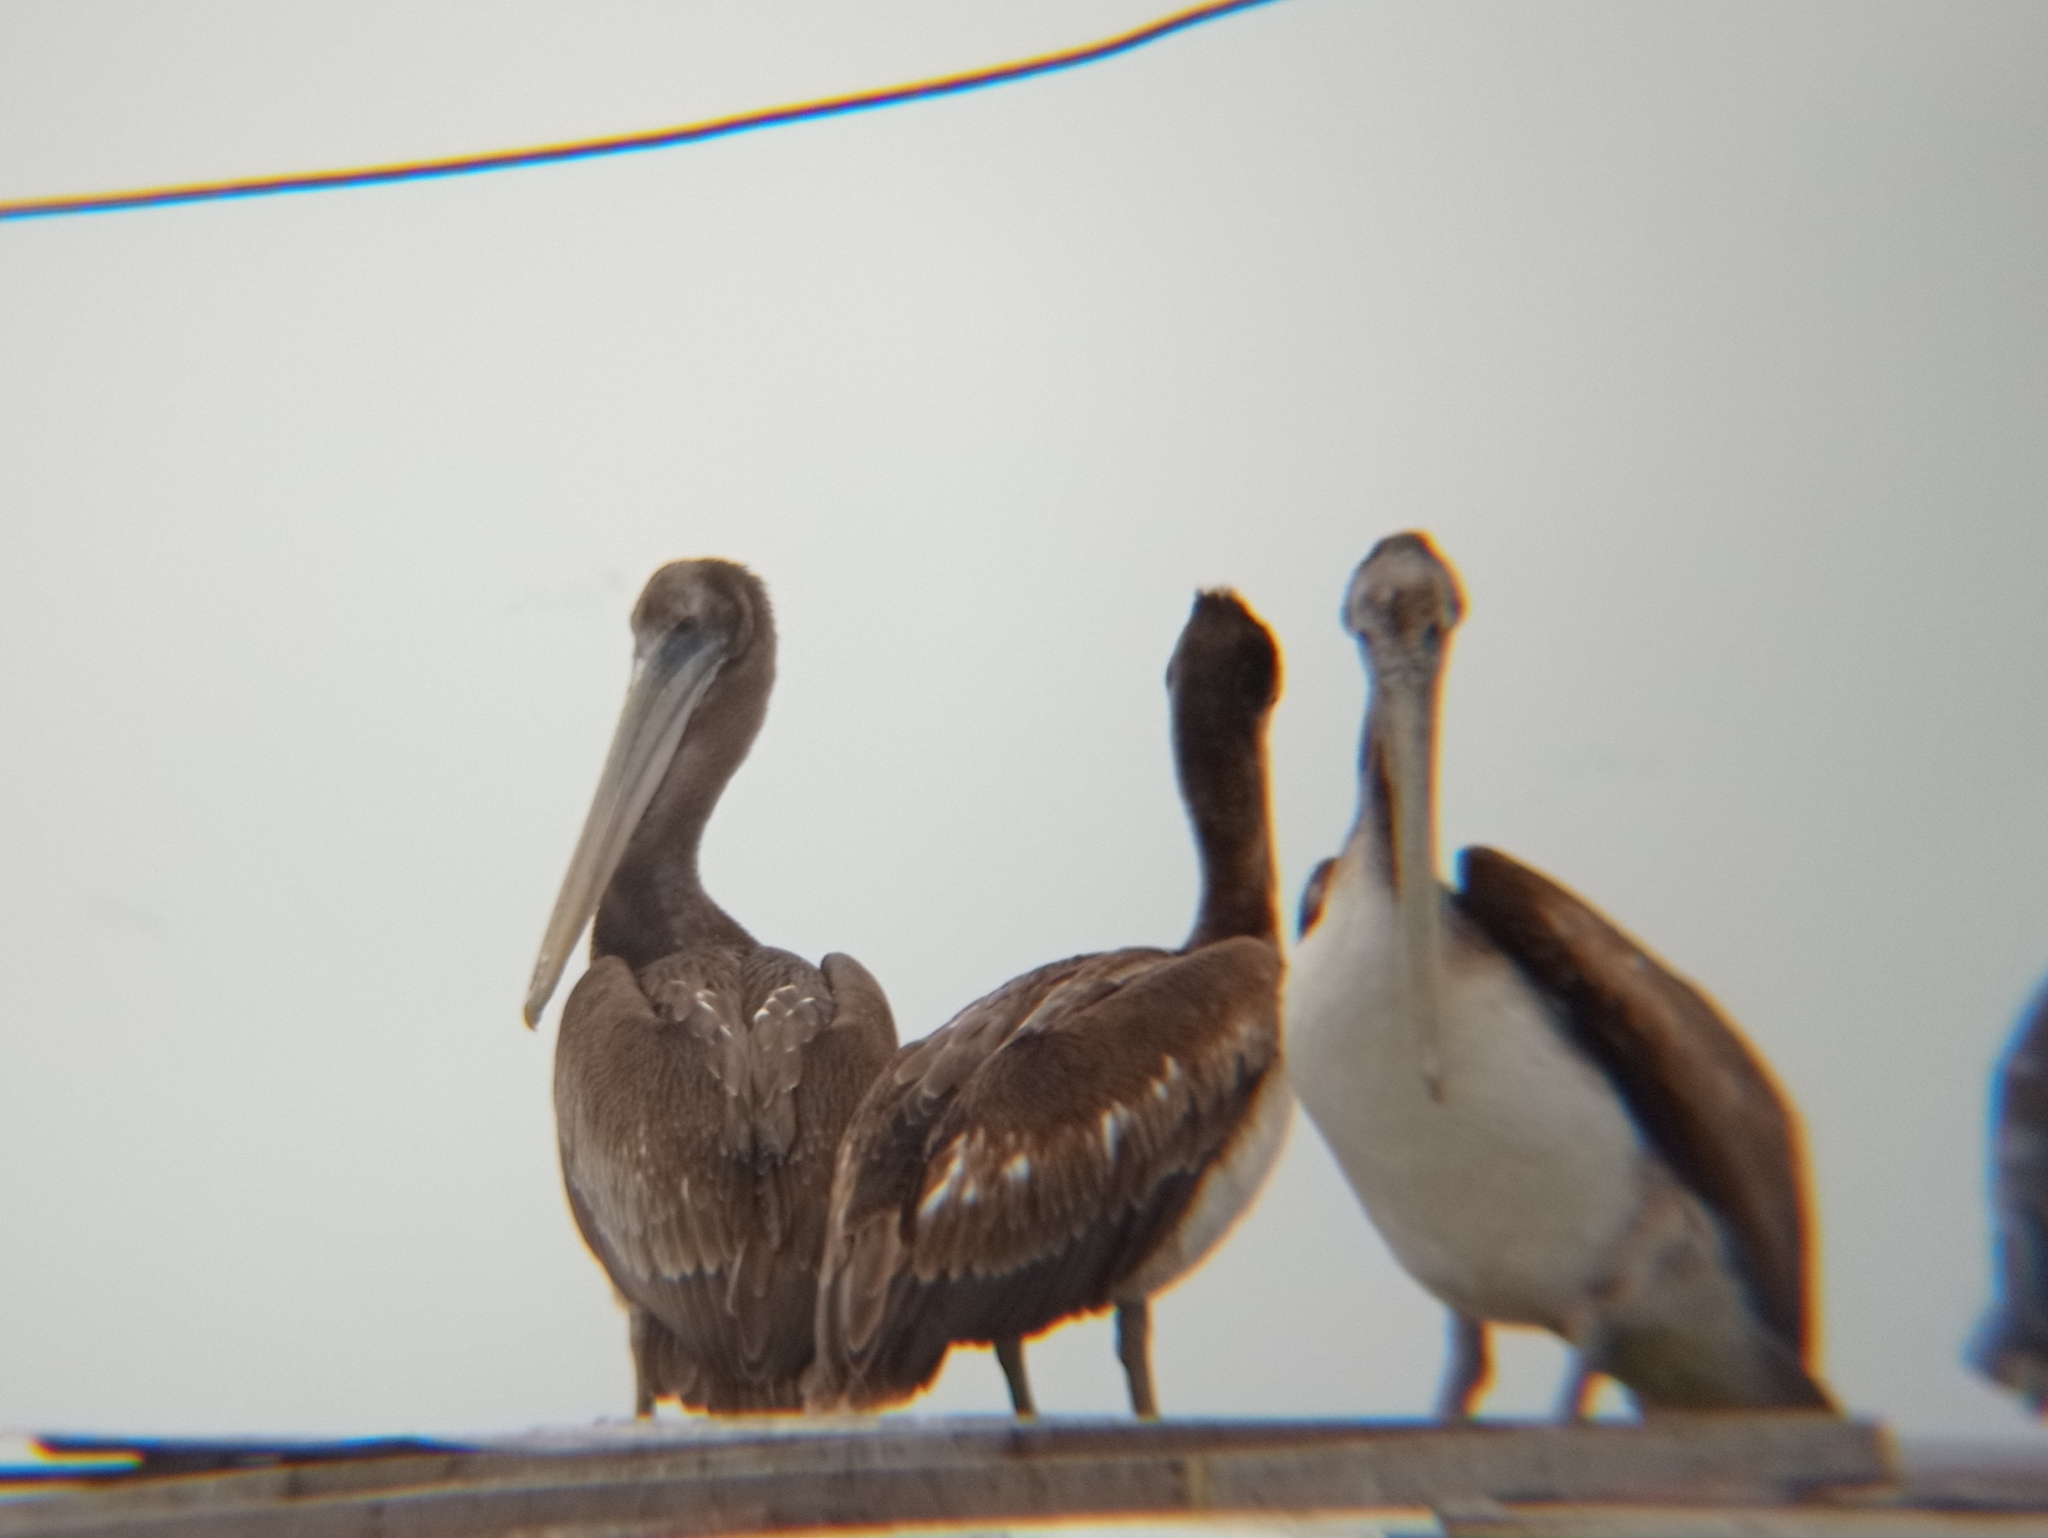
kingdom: Animalia
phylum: Chordata
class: Aves
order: Pelecaniformes
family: Pelecanidae
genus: Pelecanus
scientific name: Pelecanus thagus
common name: Peruvian pelican
